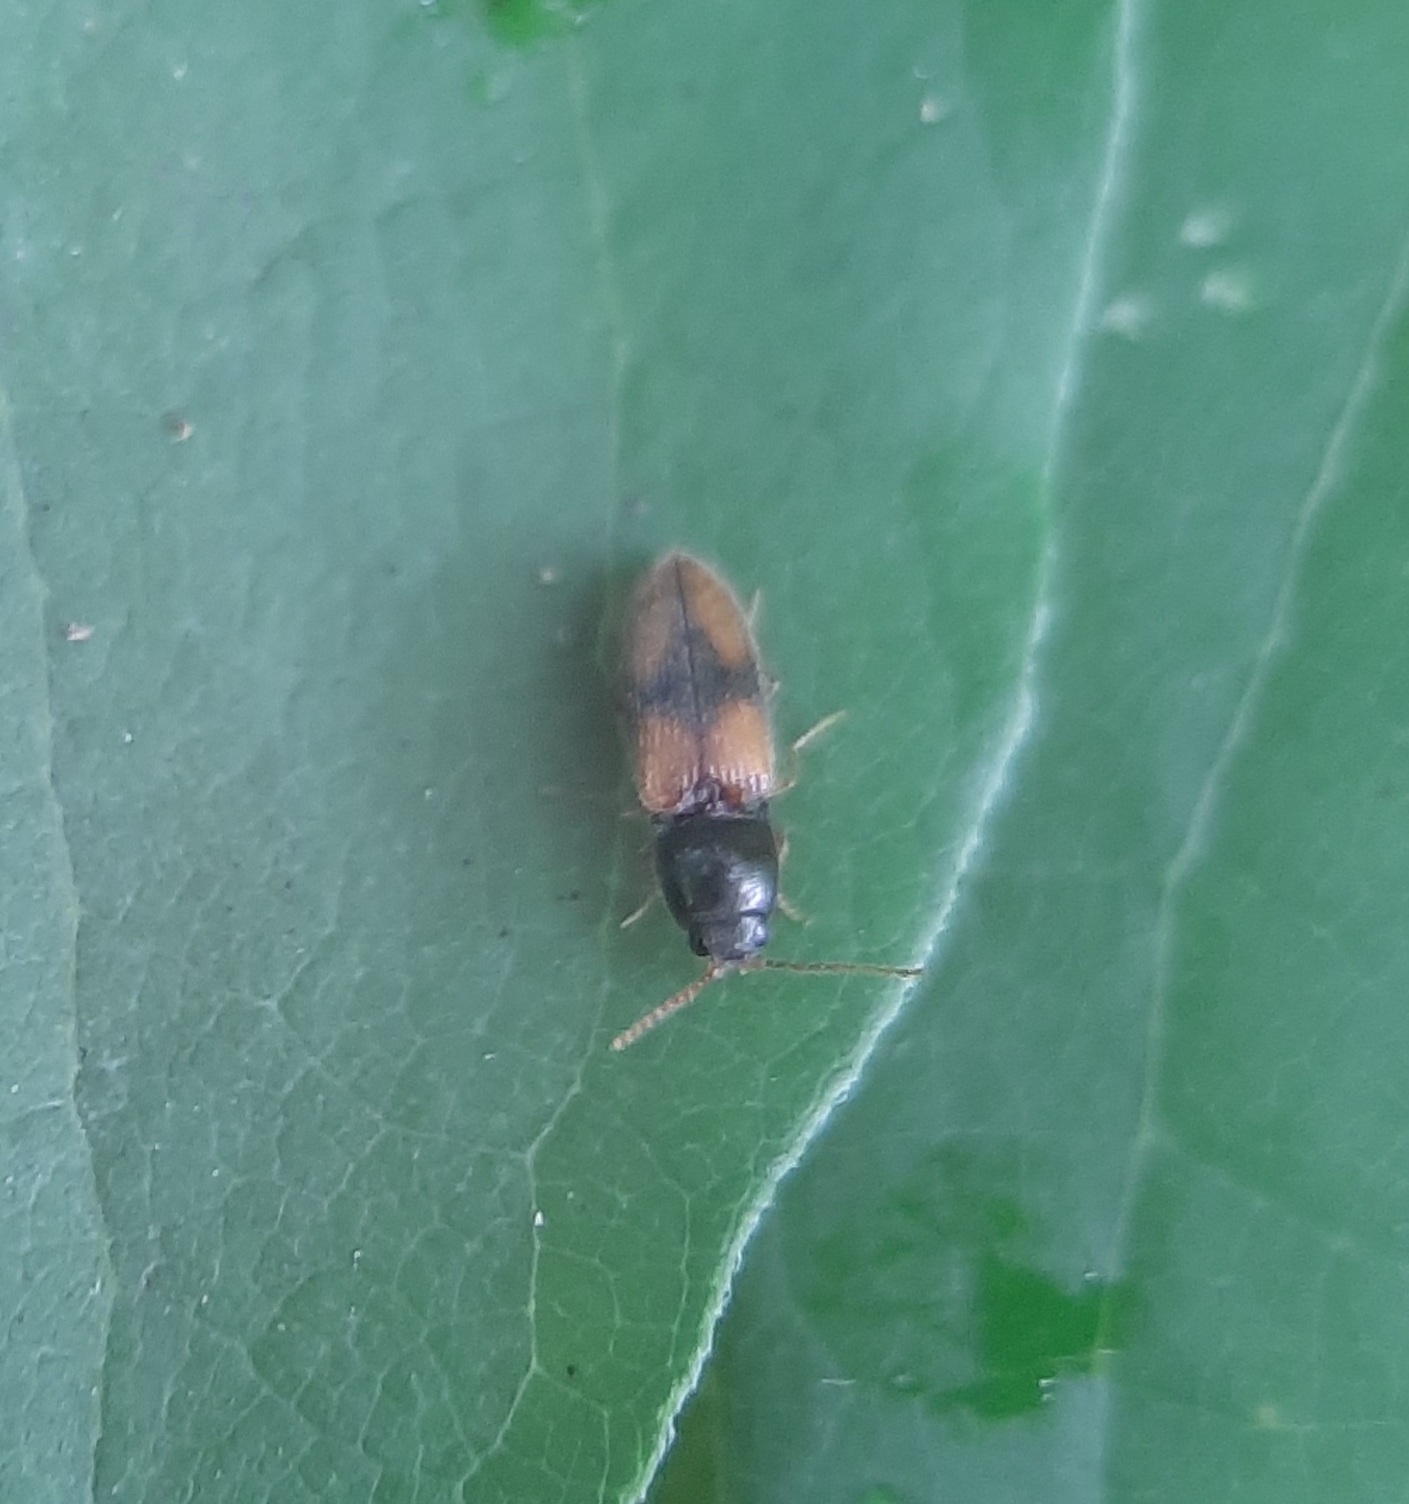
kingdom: Animalia
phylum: Arthropoda
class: Insecta
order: Coleoptera
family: Elateridae
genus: Horistonotus
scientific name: Horistonotus curiatus
